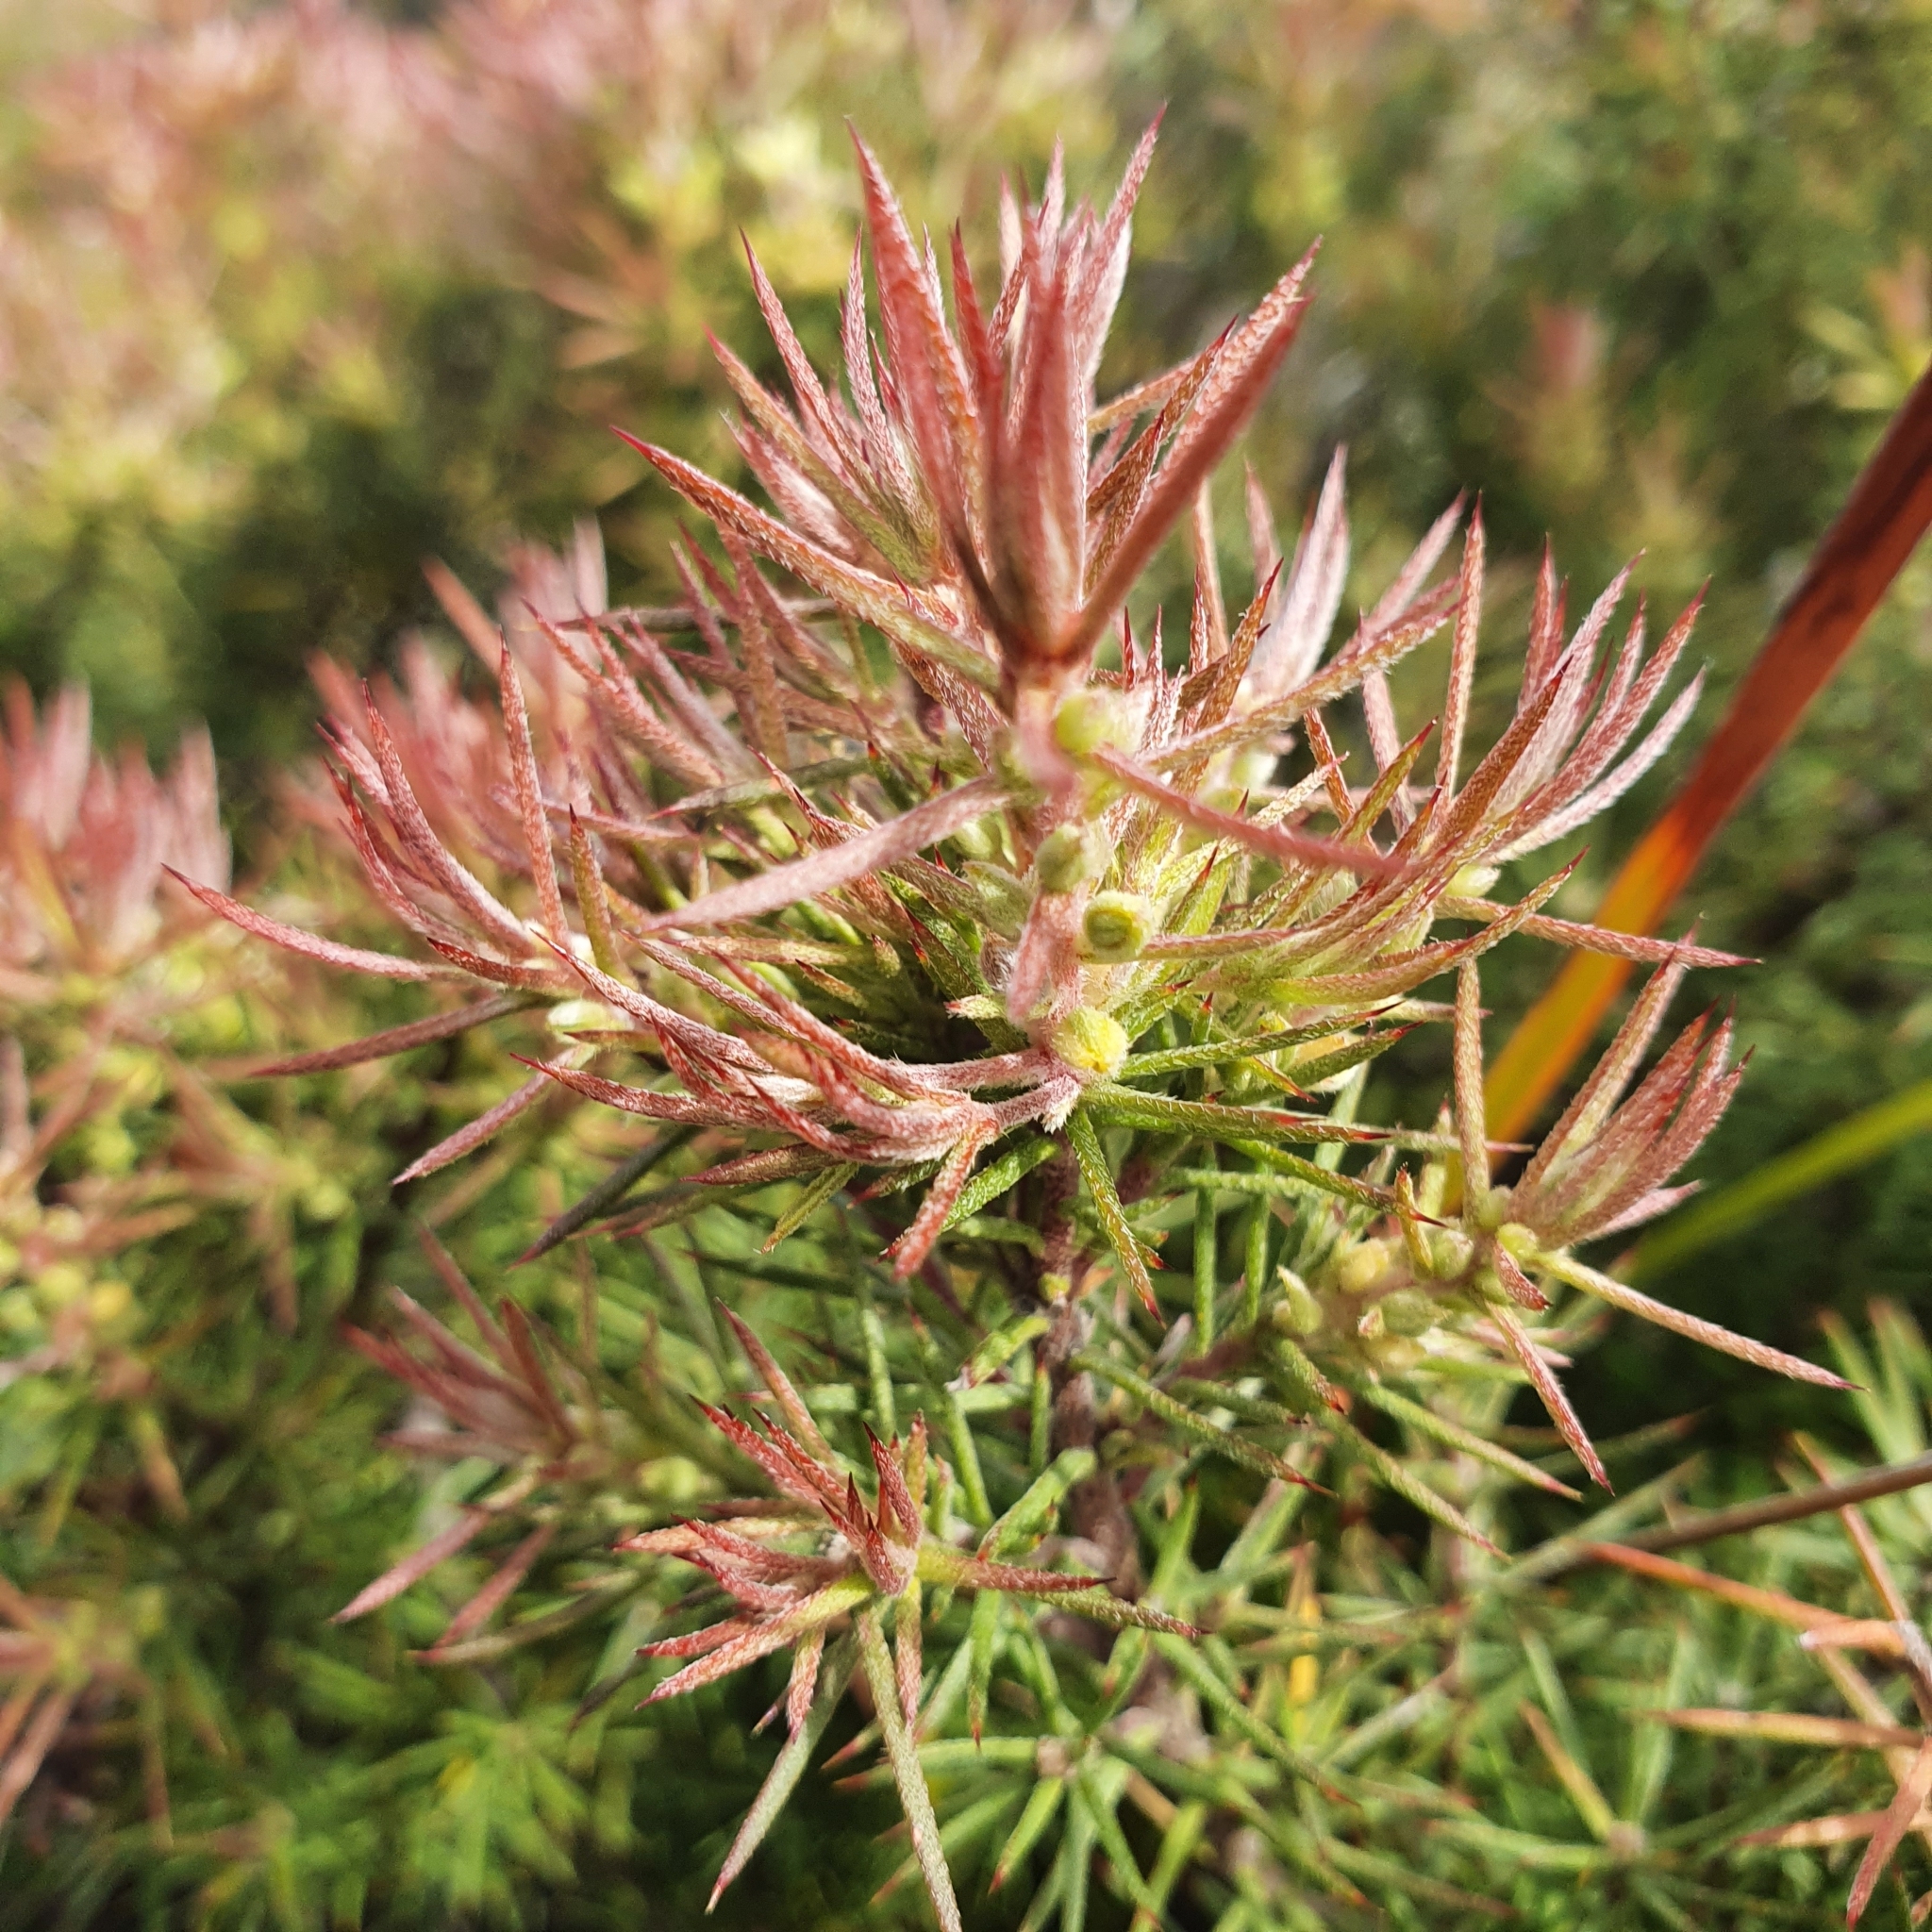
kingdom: Plantae
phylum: Tracheophyta
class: Magnoliopsida
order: Proteales
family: Proteaceae
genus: Persoonia
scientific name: Persoonia juniperina
